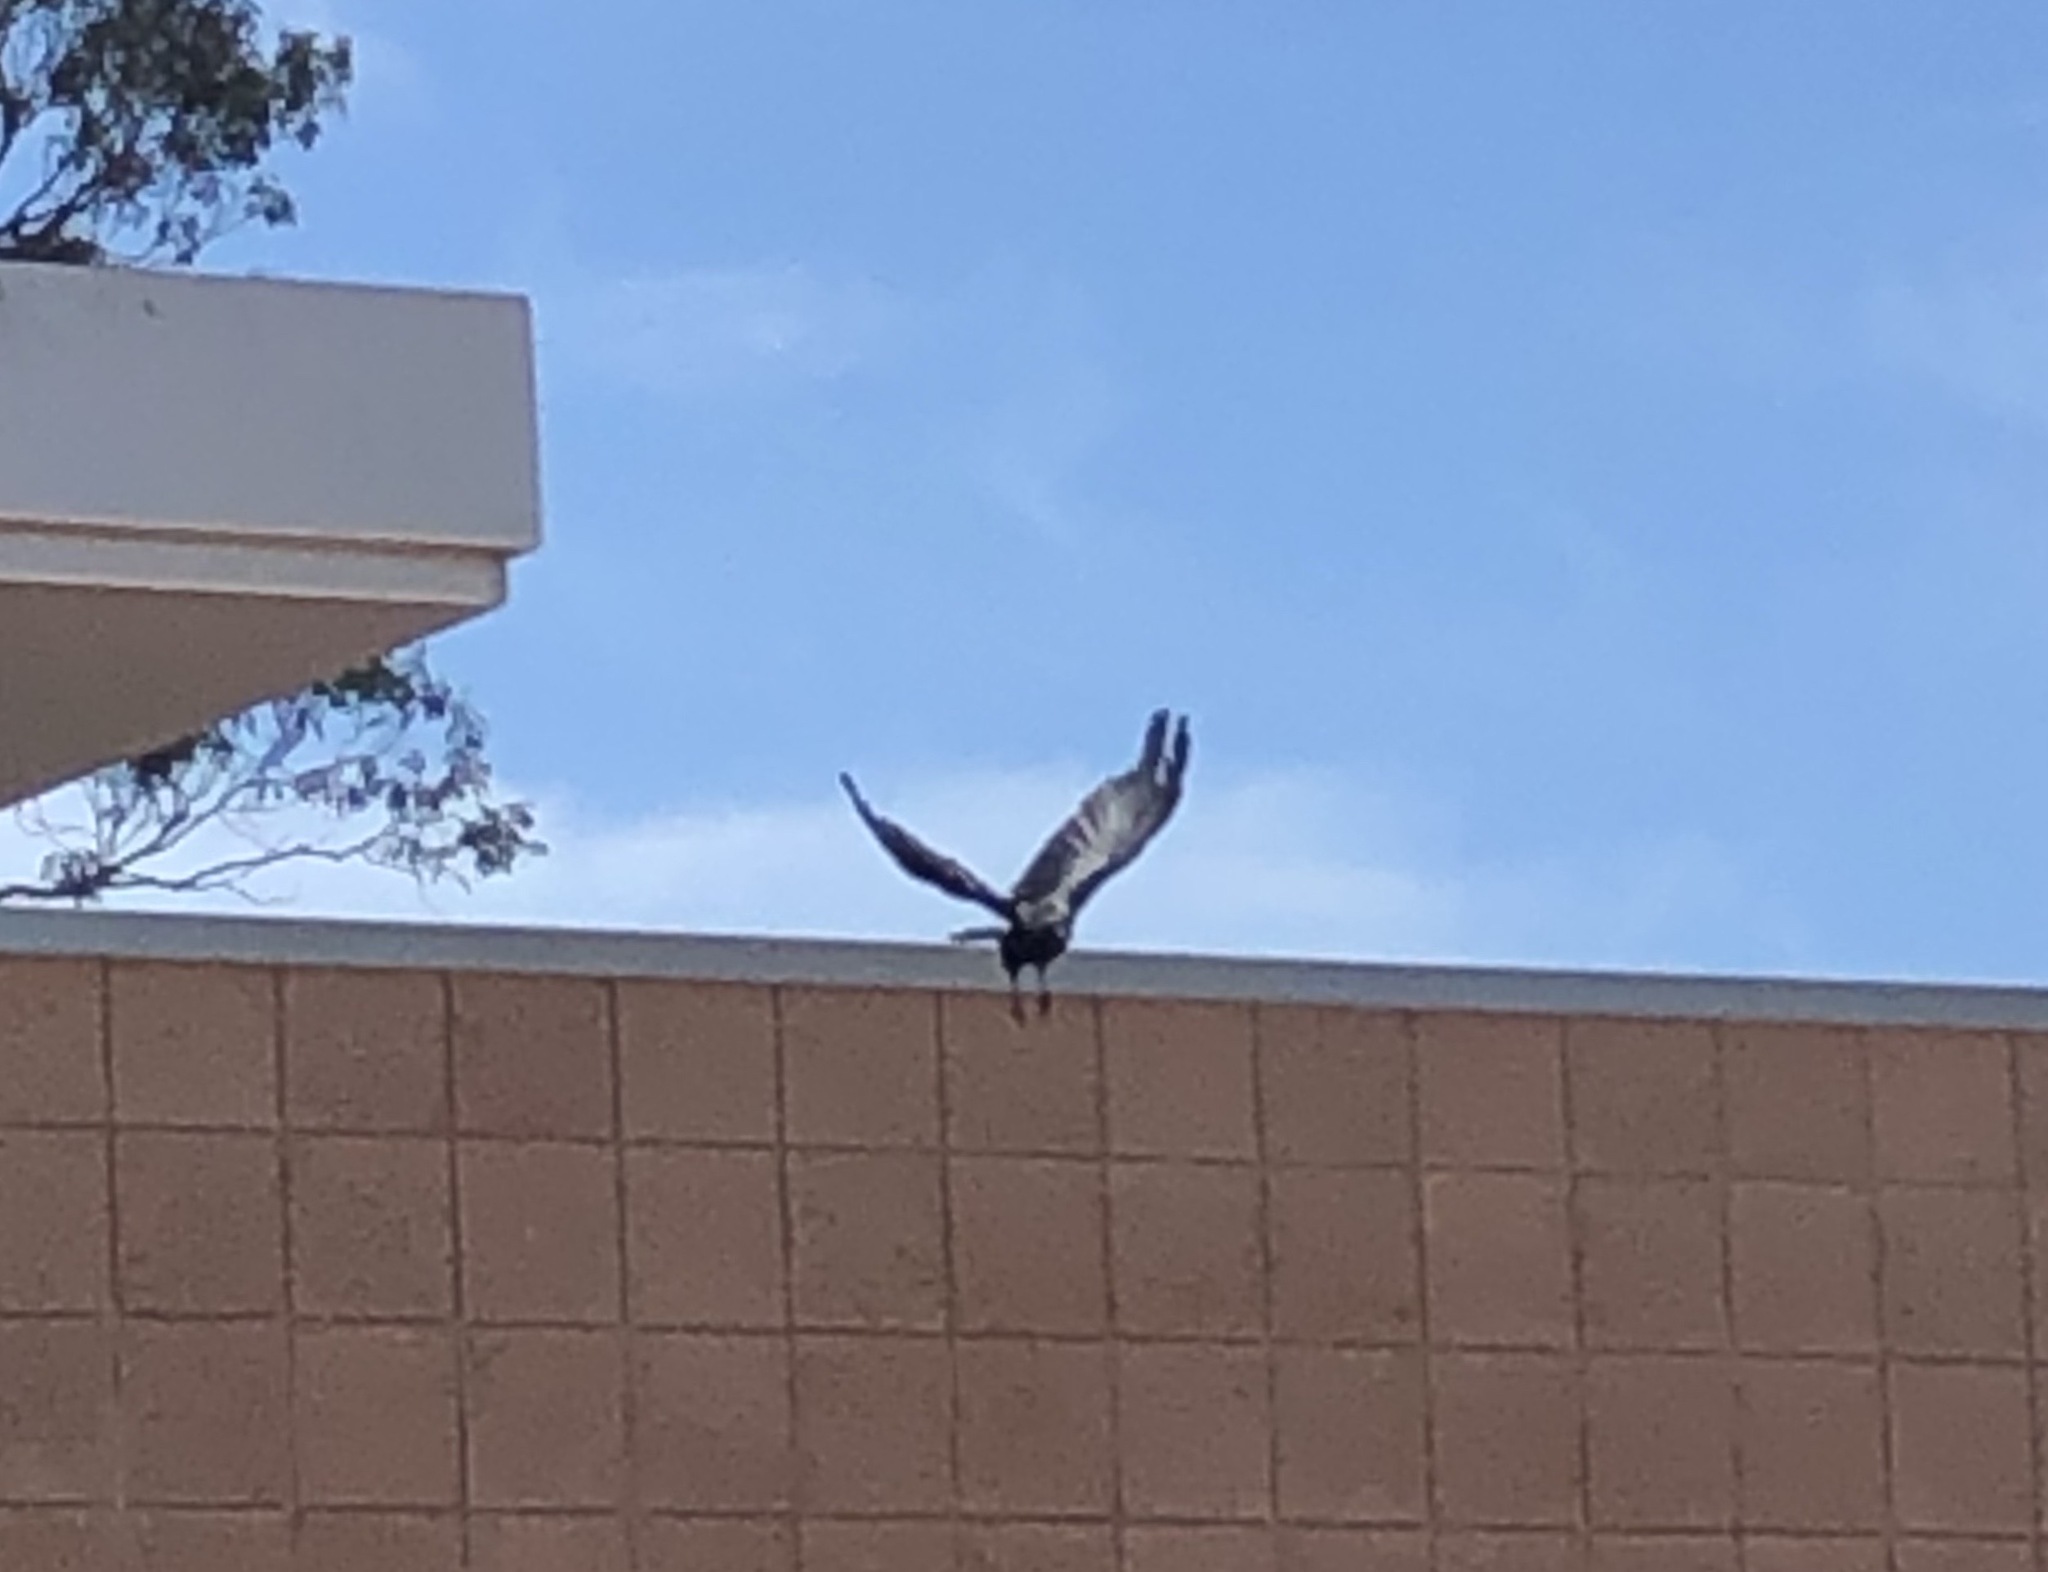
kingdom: Animalia
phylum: Chordata
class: Aves
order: Passeriformes
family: Corvidae
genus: Corvus
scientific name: Corvus brachyrhynchos
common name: American crow
